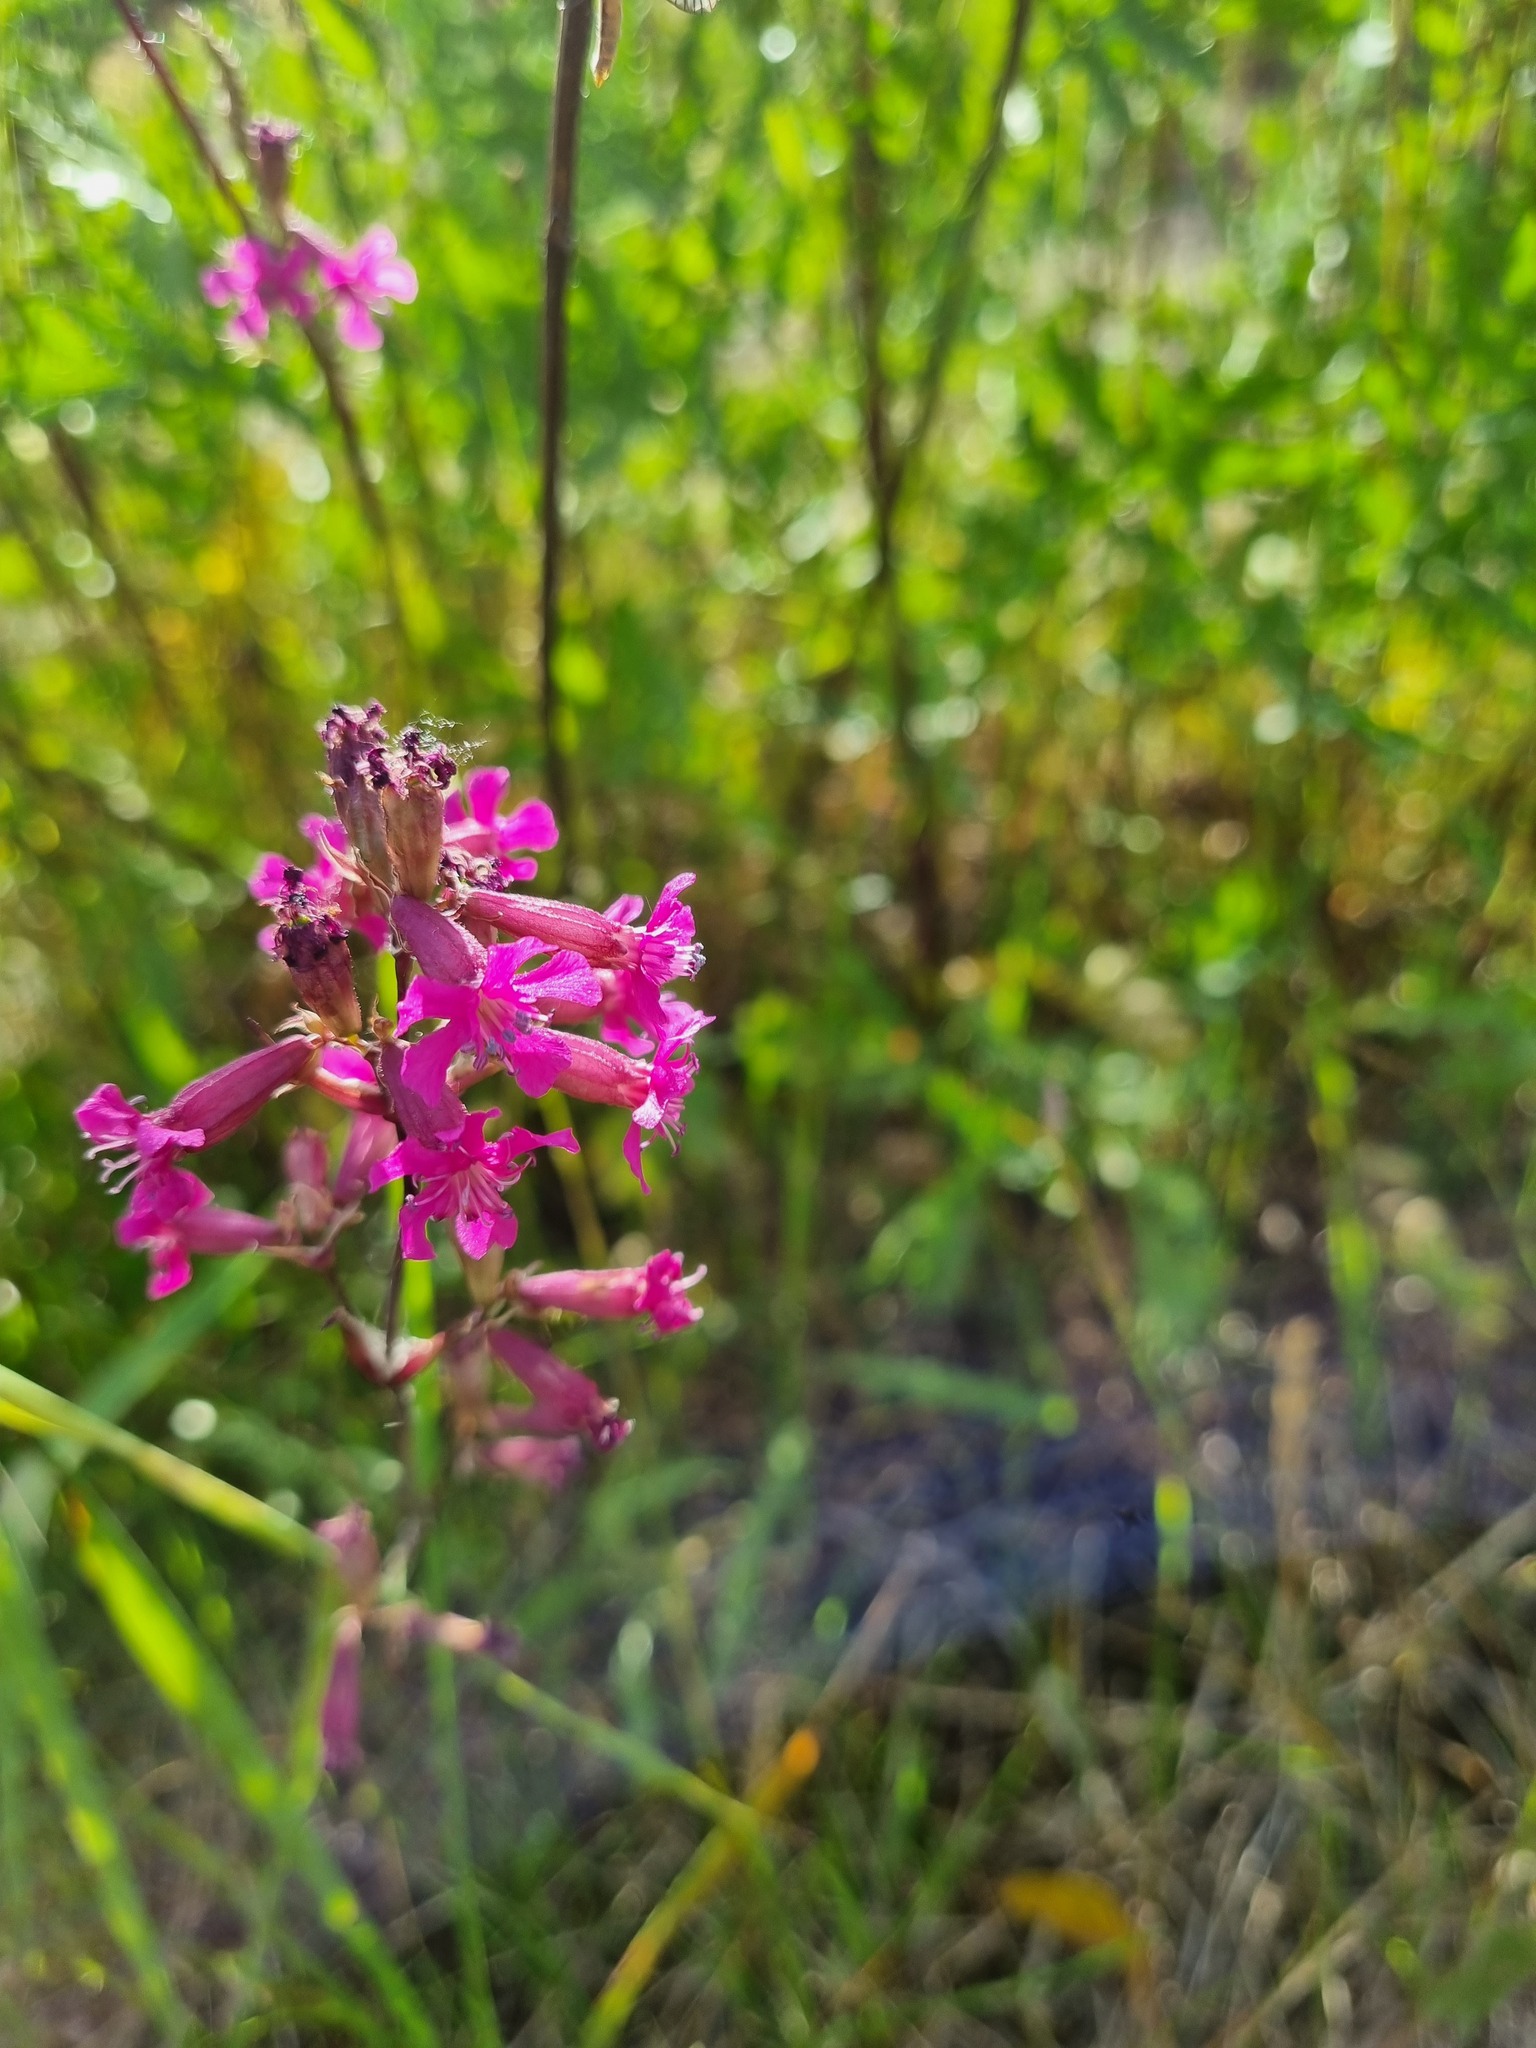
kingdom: Plantae
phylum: Tracheophyta
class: Magnoliopsida
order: Caryophyllales
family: Caryophyllaceae
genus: Viscaria
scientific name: Viscaria vulgaris
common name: Clammy campion
